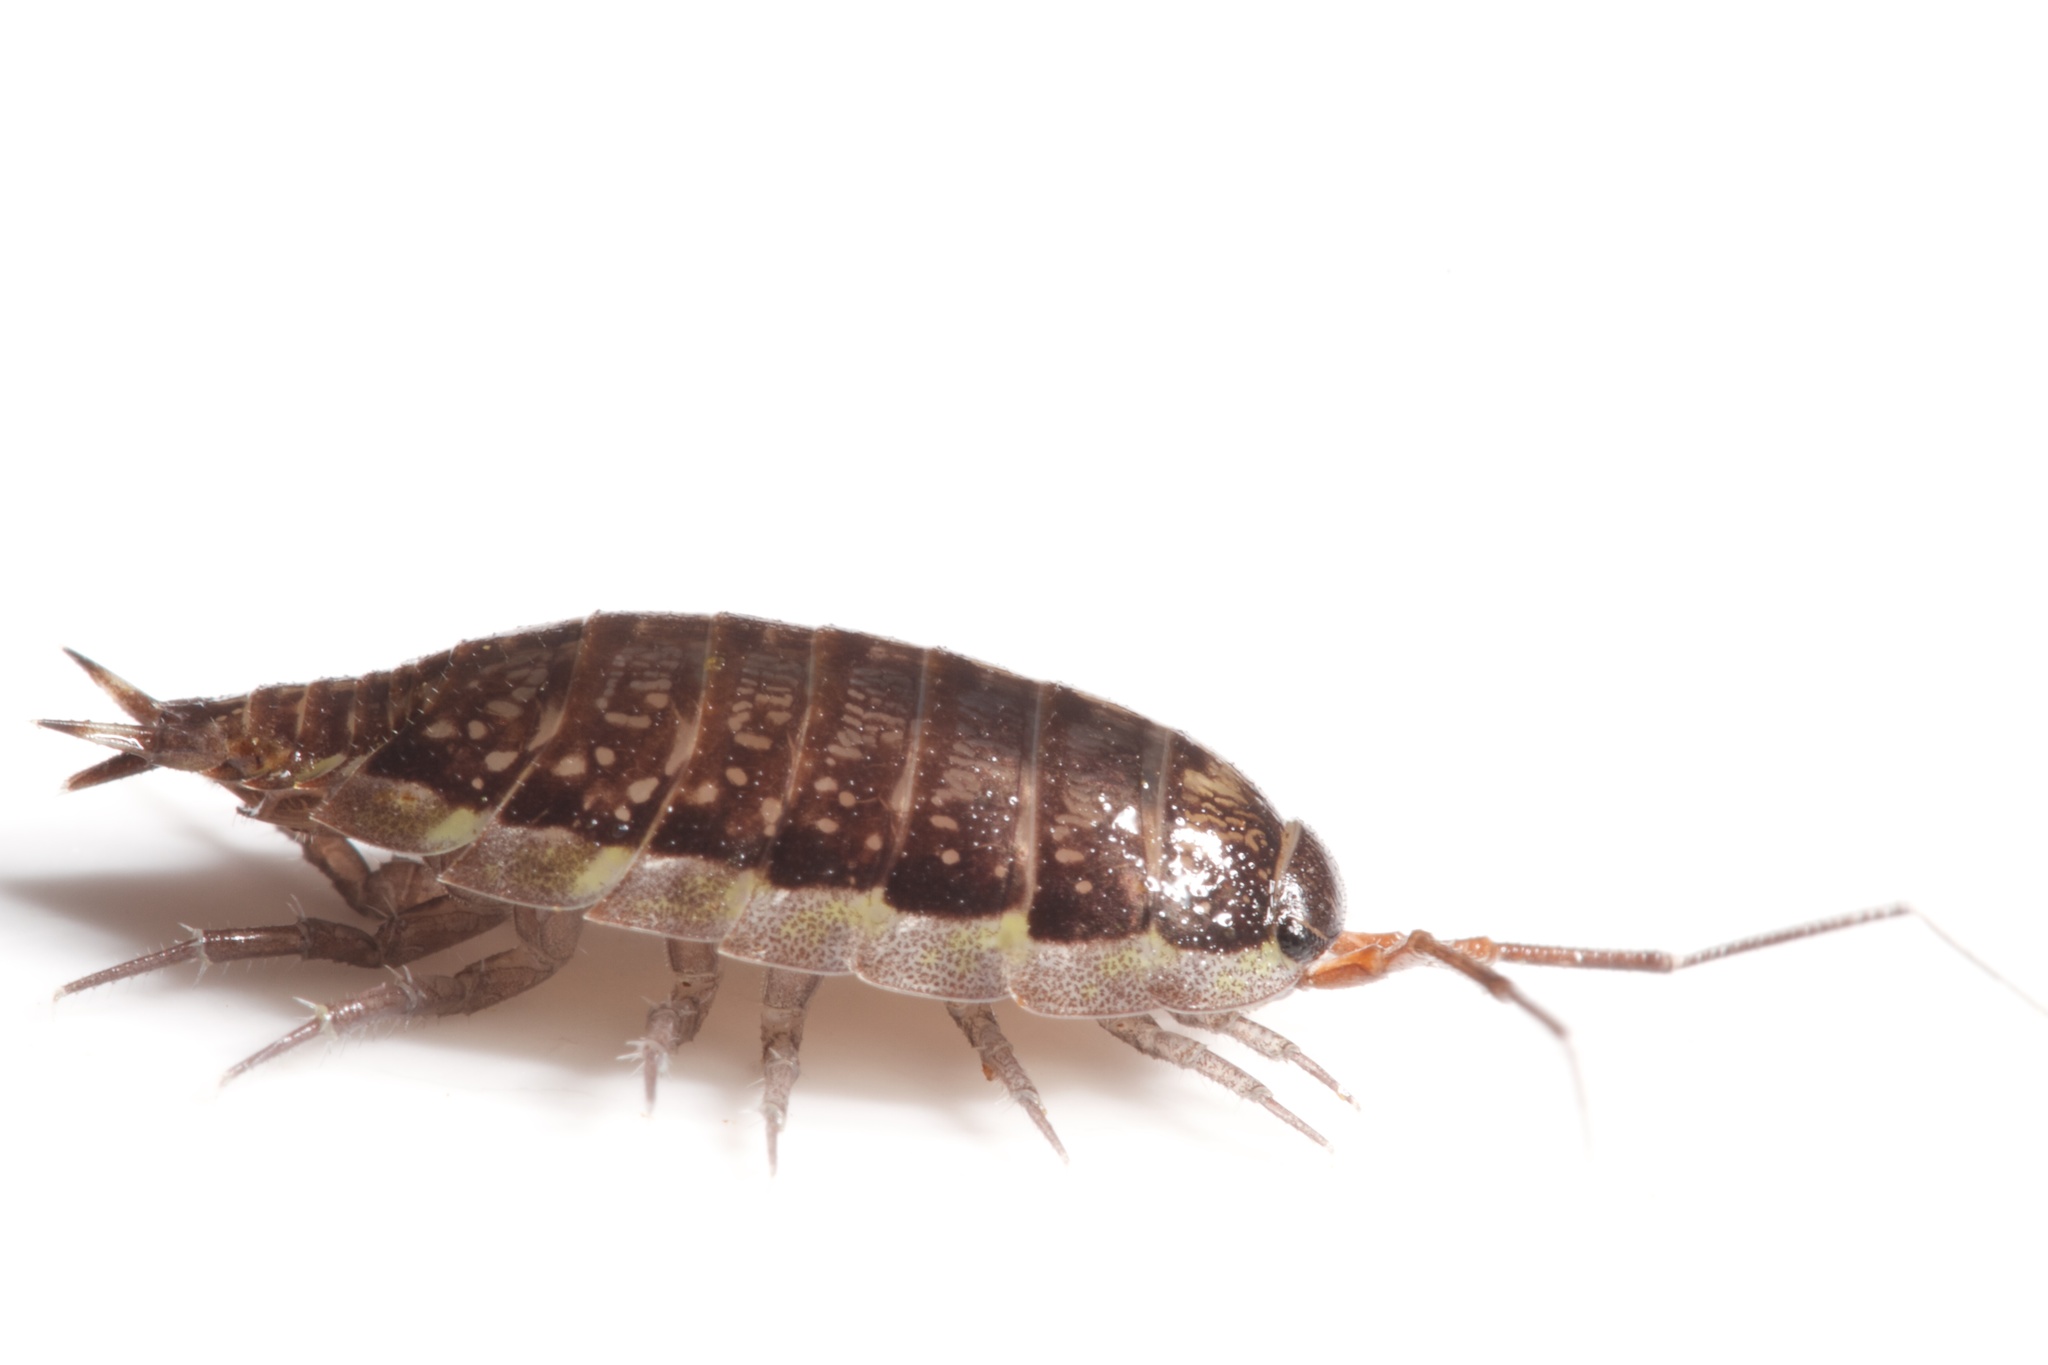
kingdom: Animalia
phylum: Arthropoda
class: Malacostraca
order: Isopoda
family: Philosciidae
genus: Ischioscia
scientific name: Ischioscia variegata
